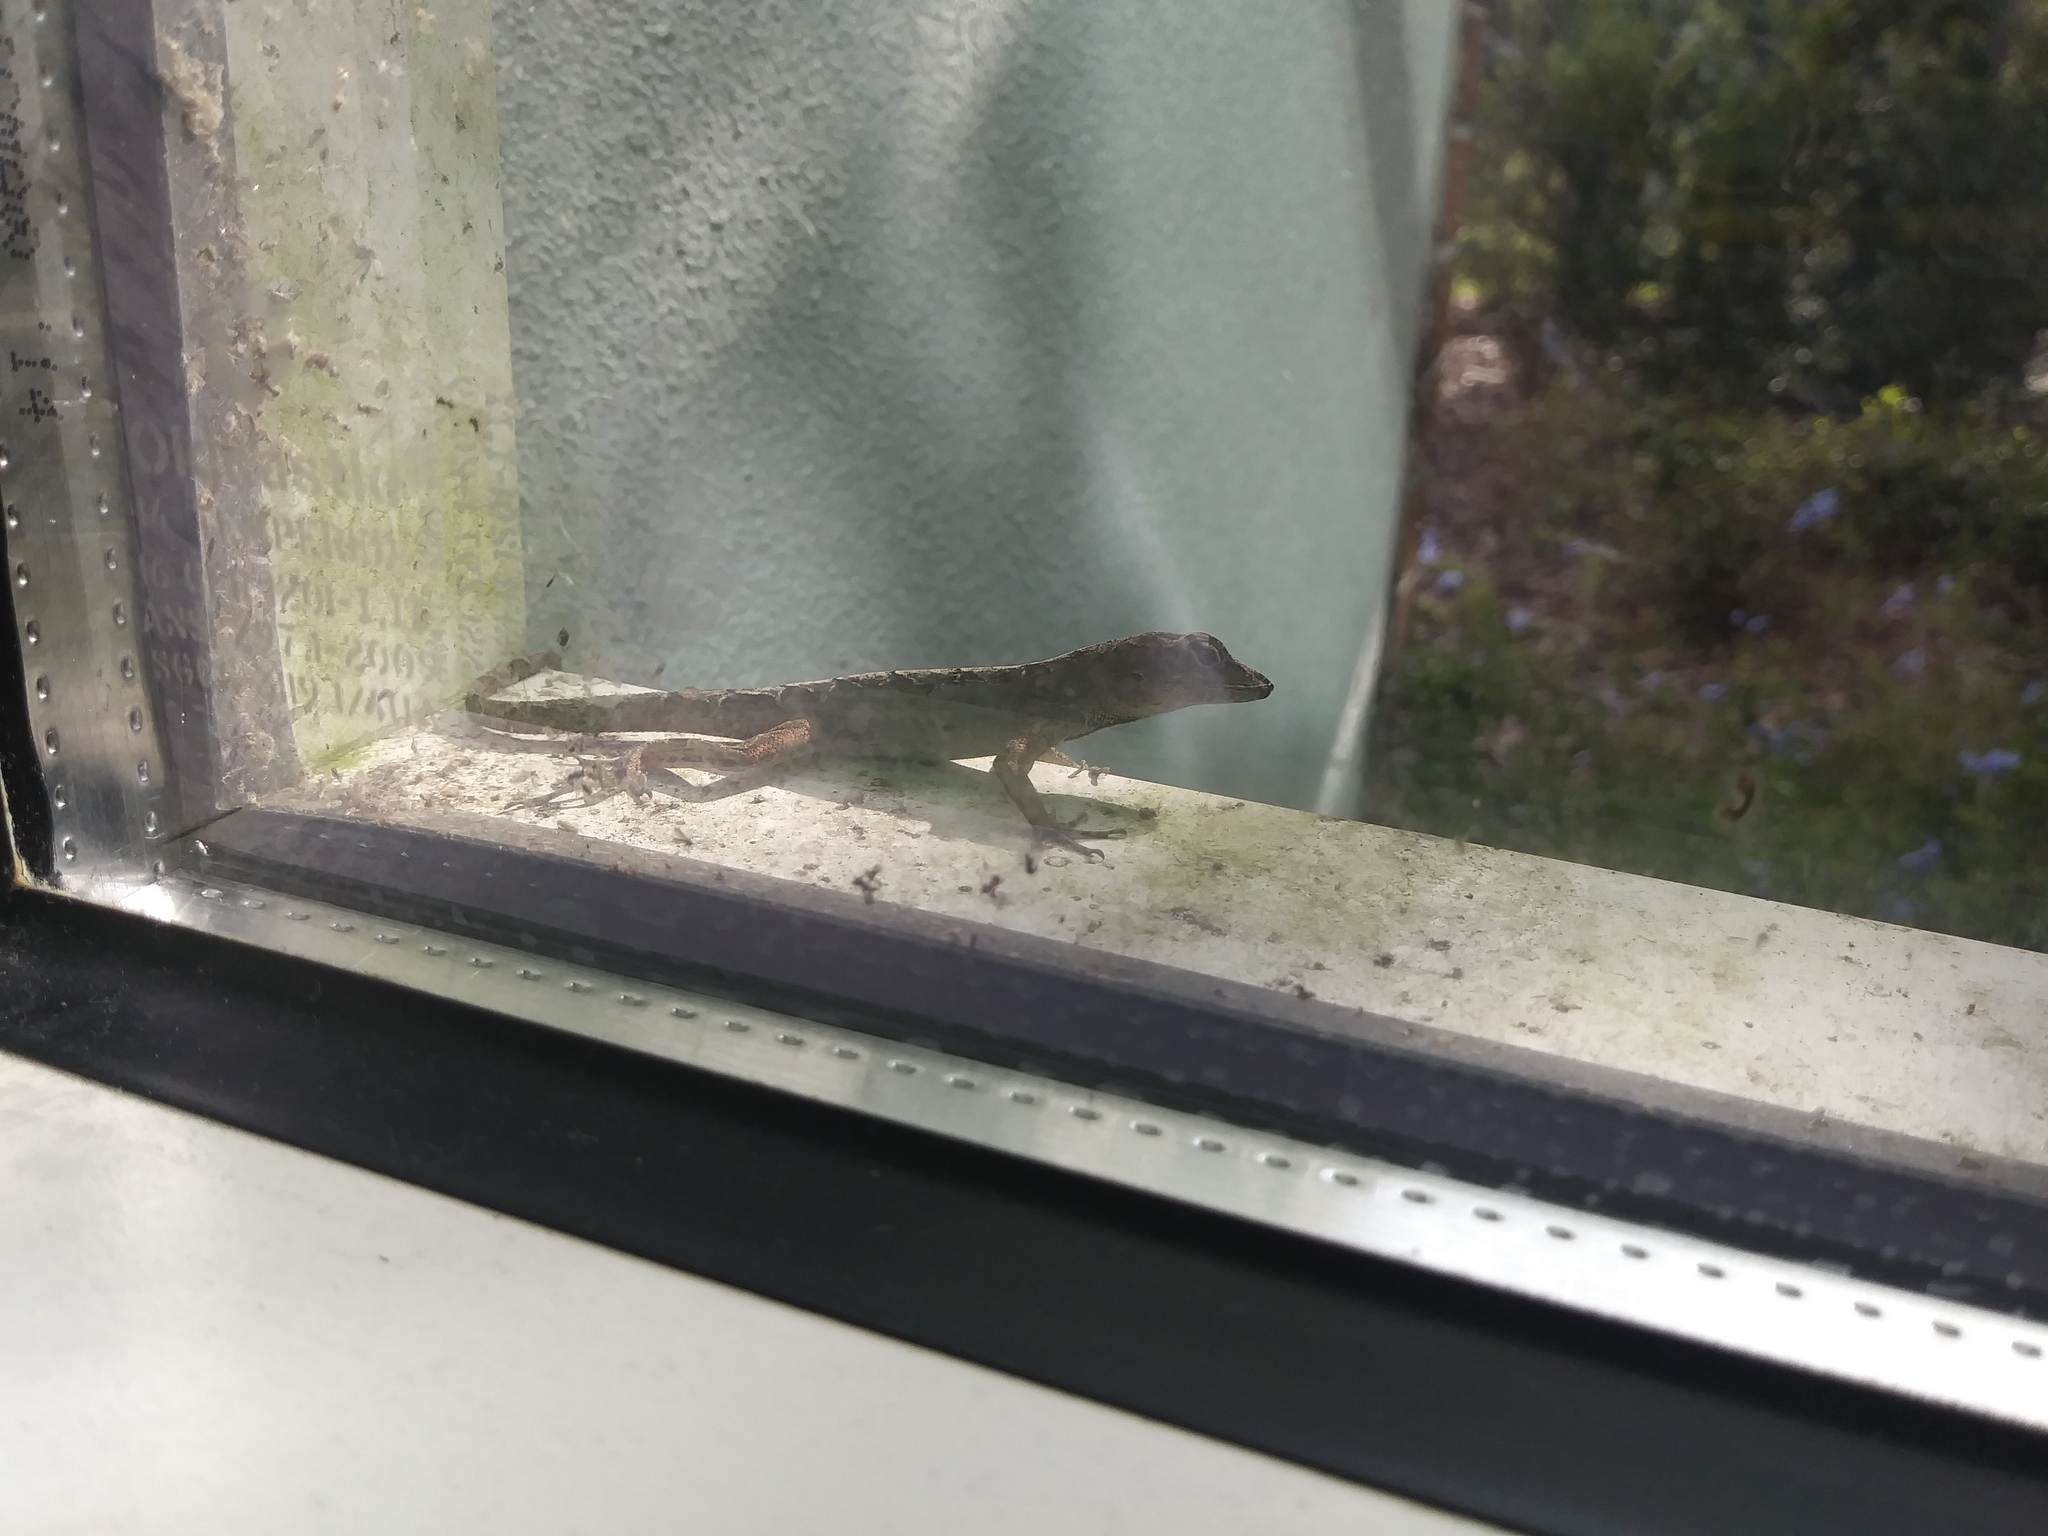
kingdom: Animalia
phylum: Chordata
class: Squamata
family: Dactyloidae
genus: Anolis
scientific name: Anolis sagrei
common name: Brown anole
